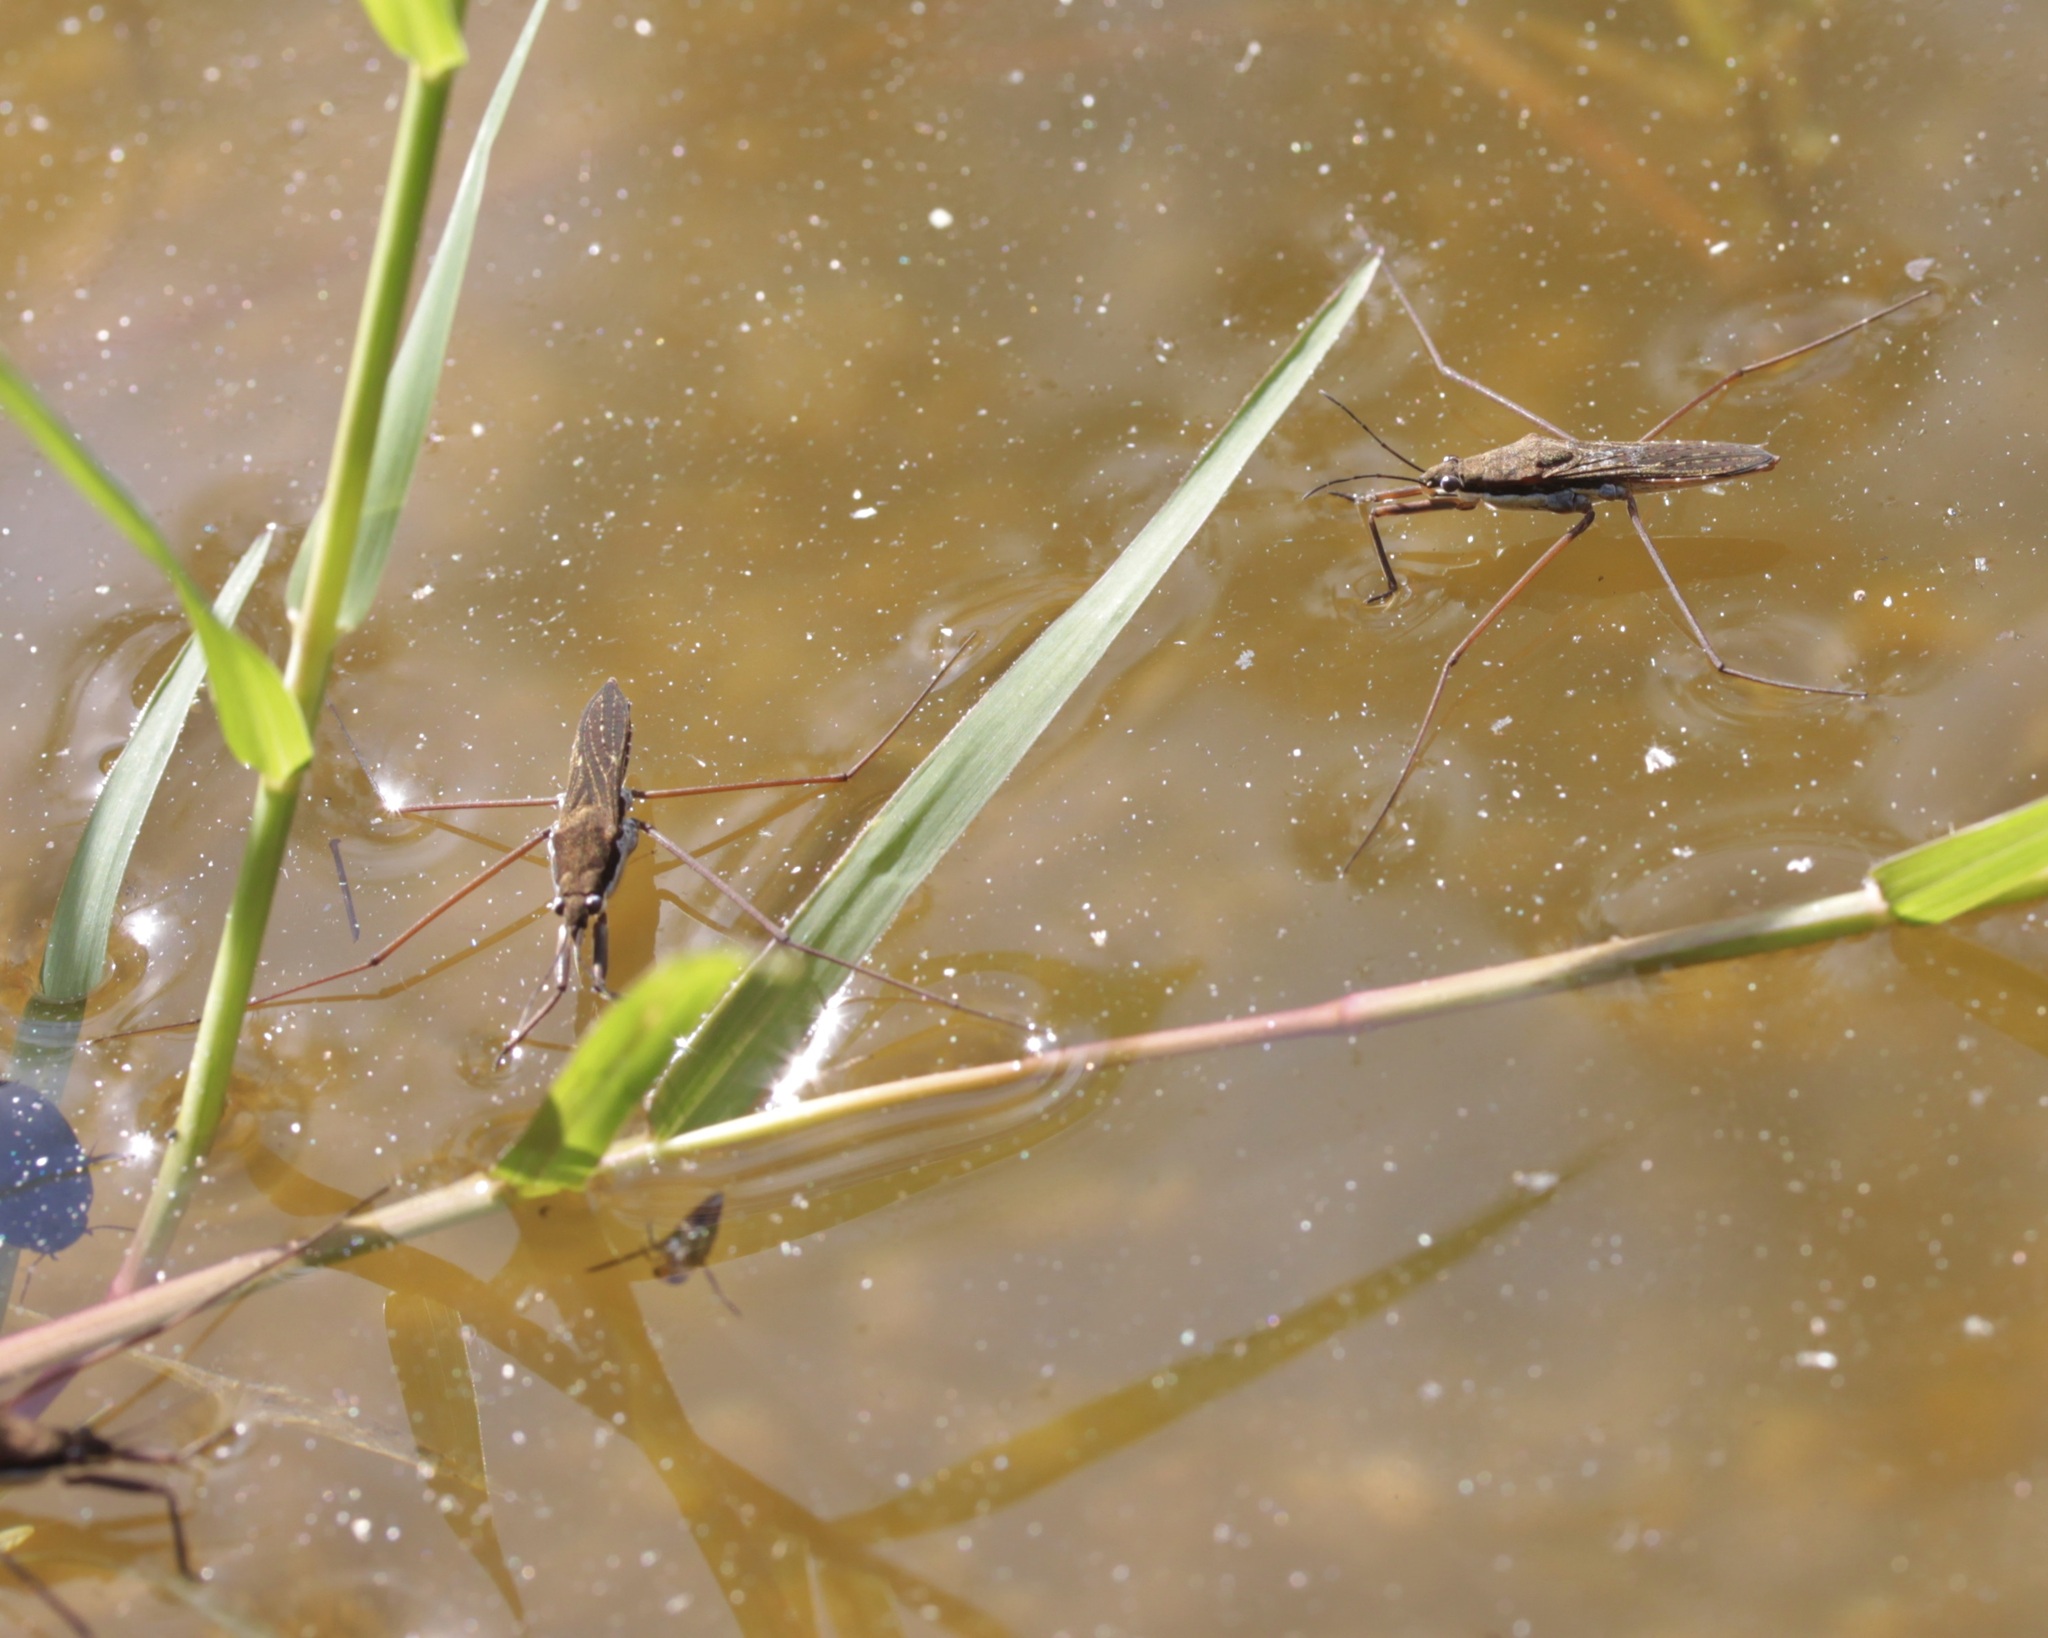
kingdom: Animalia
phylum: Arthropoda
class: Insecta
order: Hemiptera
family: Gerridae
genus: Aquarius
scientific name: Aquarius
